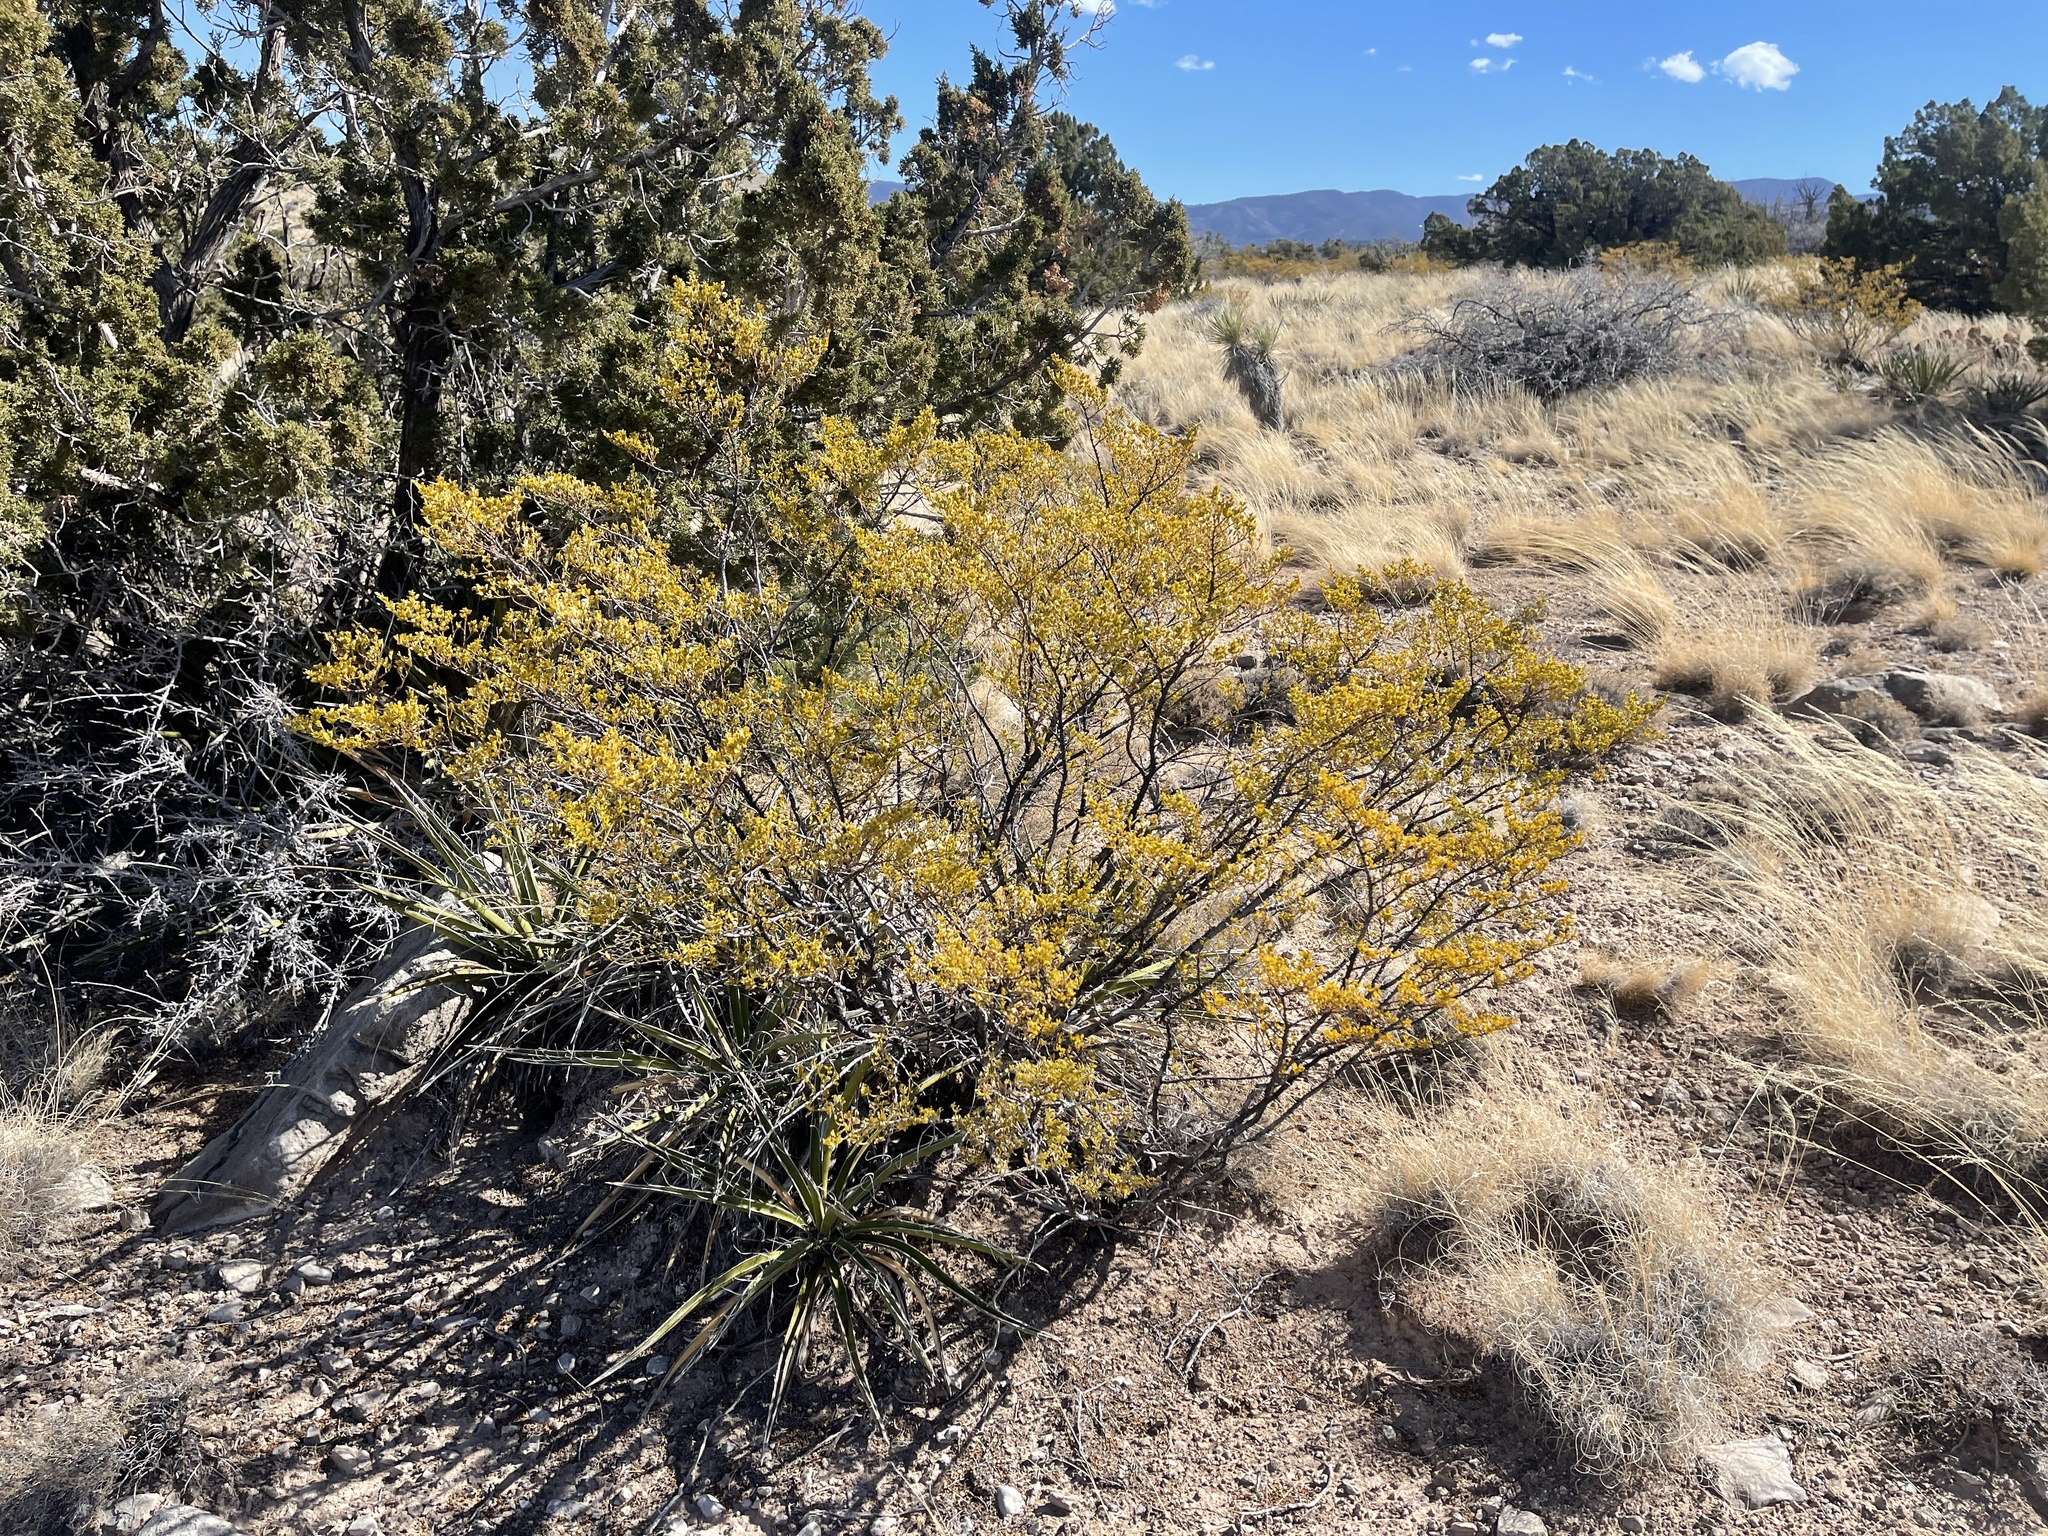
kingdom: Plantae
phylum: Tracheophyta
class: Magnoliopsida
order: Zygophyllales
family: Zygophyllaceae
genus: Larrea
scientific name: Larrea tridentata
